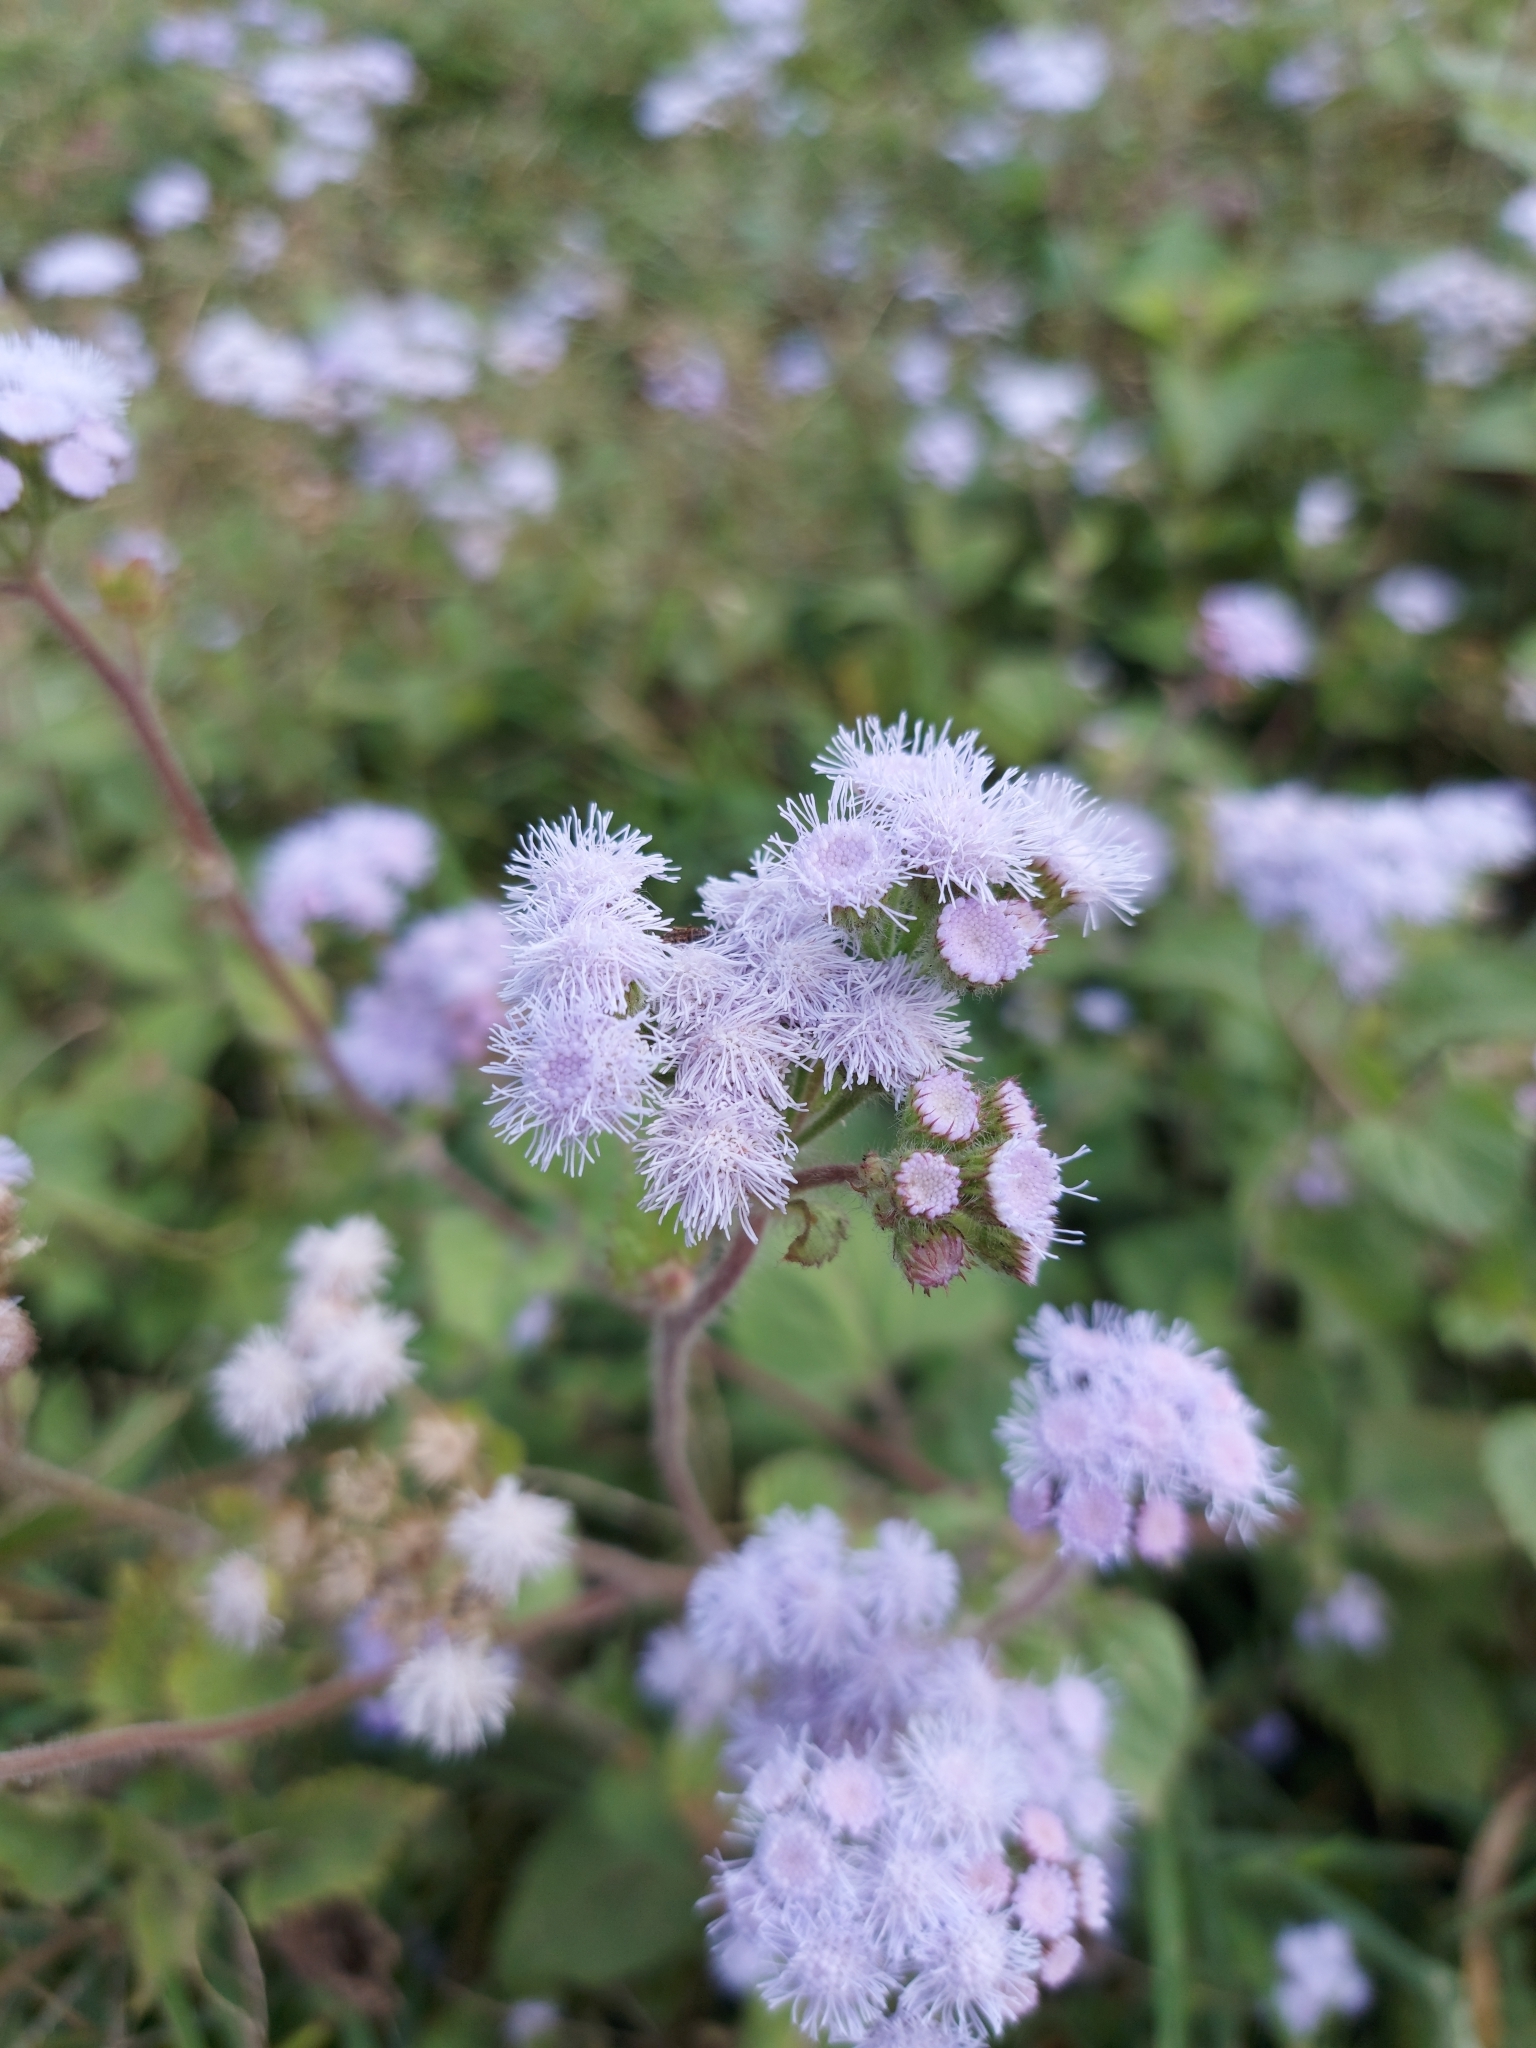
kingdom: Plantae
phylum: Tracheophyta
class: Magnoliopsida
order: Asterales
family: Asteraceae
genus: Ageratum
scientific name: Ageratum houstonianum
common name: Bluemink
